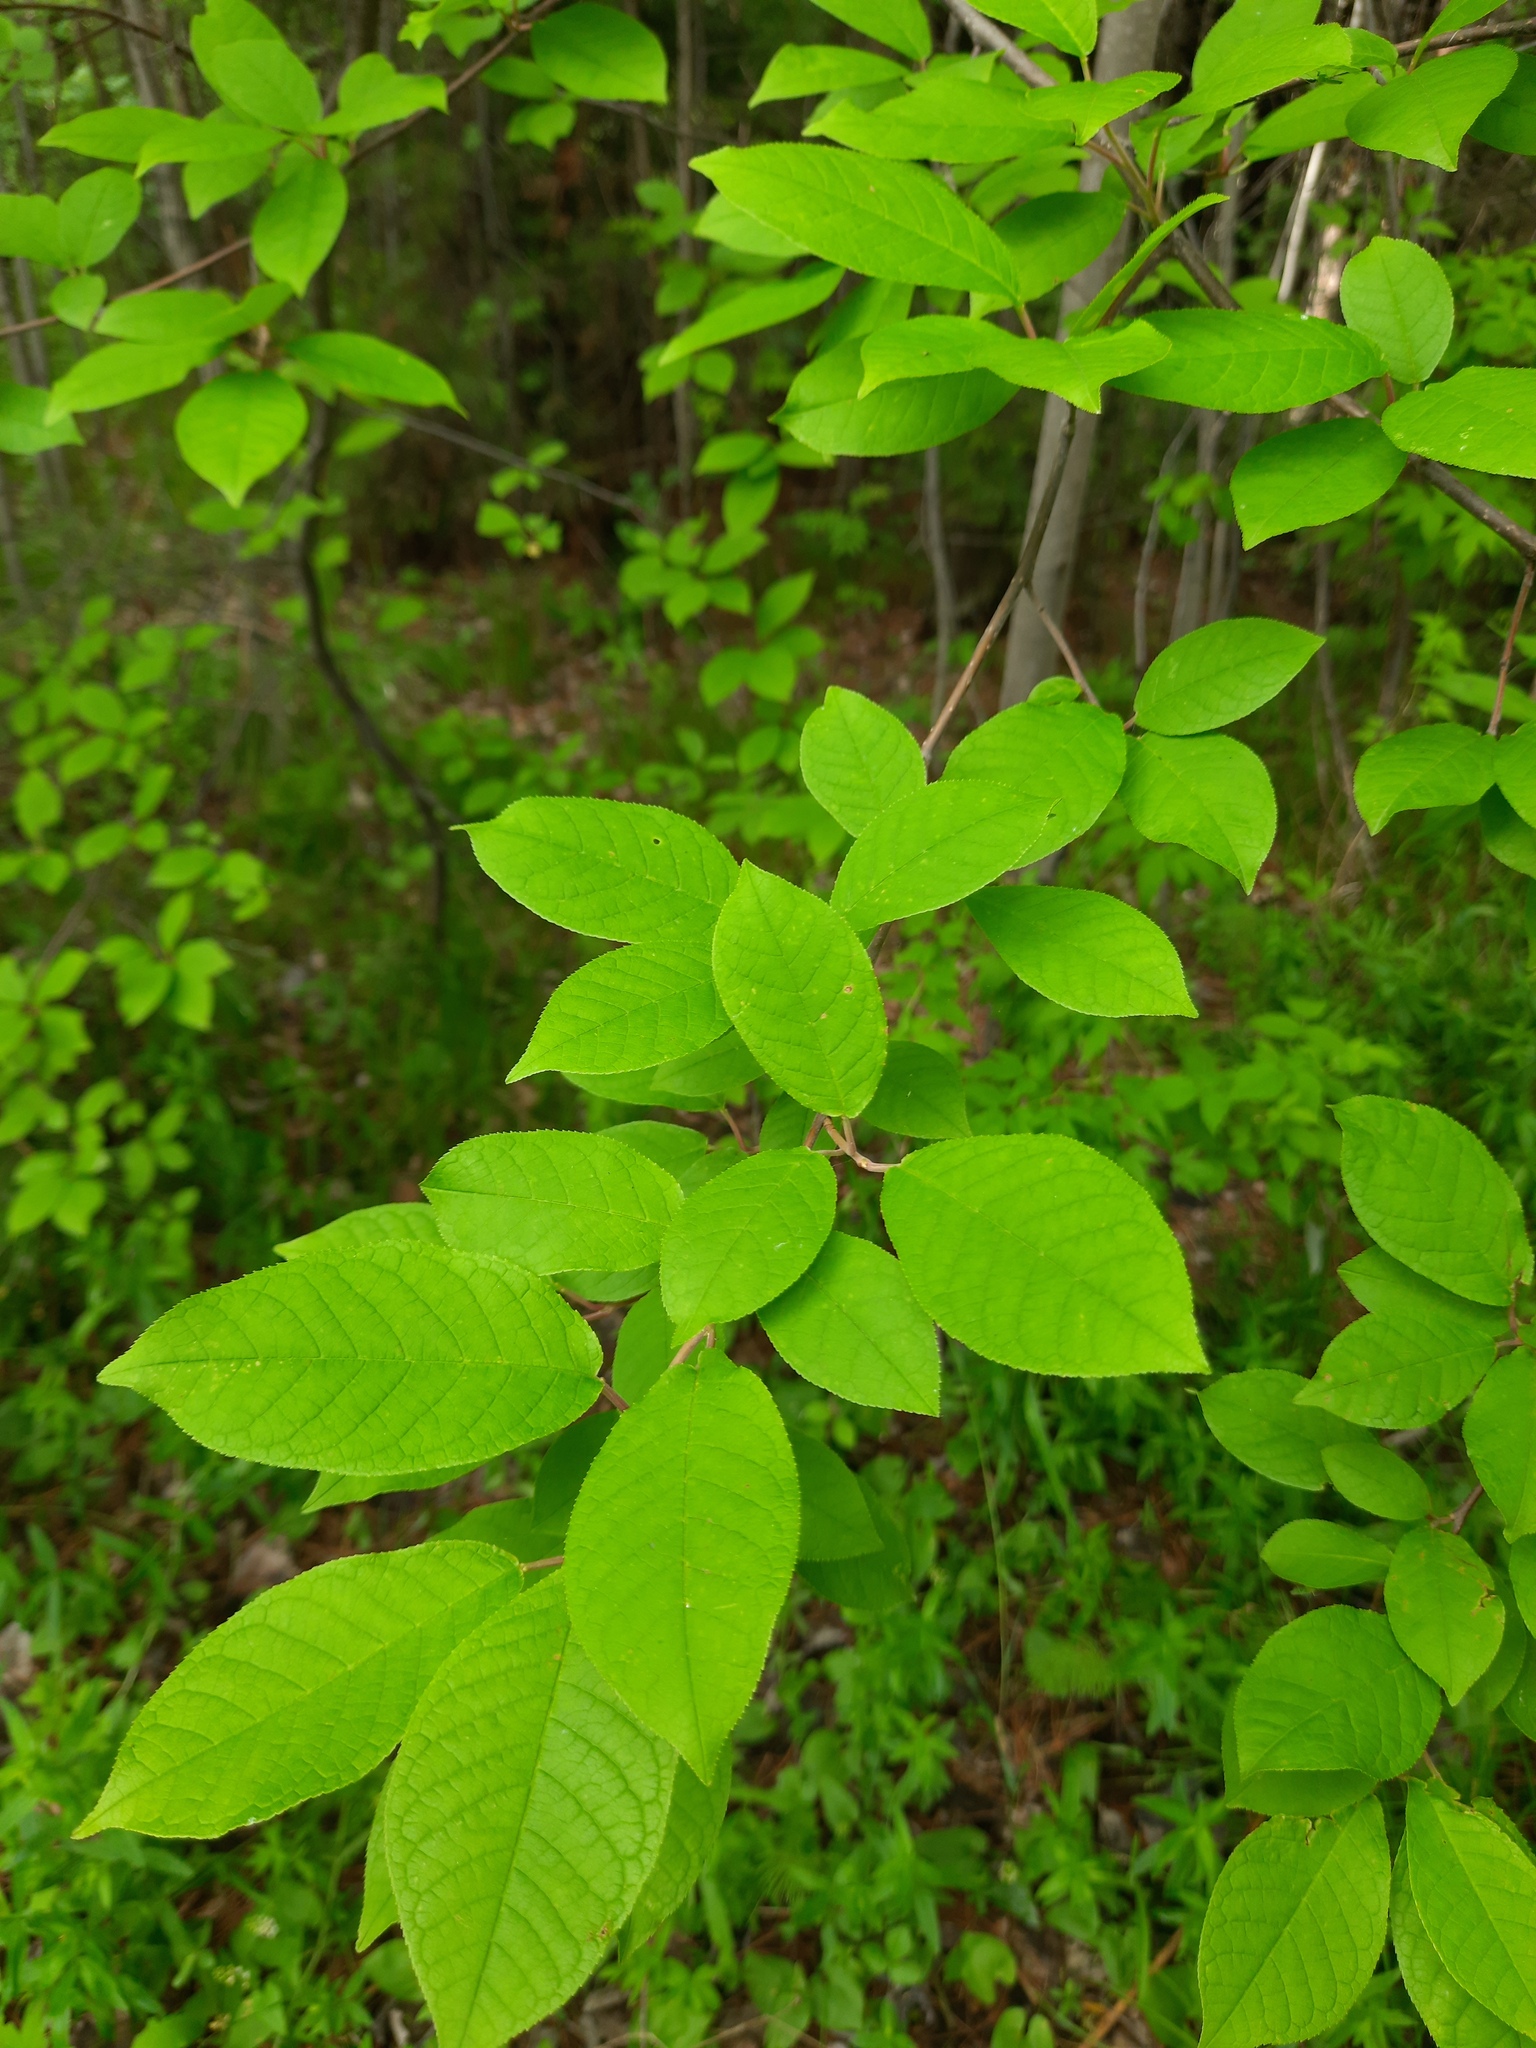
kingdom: Plantae
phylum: Tracheophyta
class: Magnoliopsida
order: Rosales
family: Rosaceae
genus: Prunus
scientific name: Prunus padus
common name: Bird cherry
